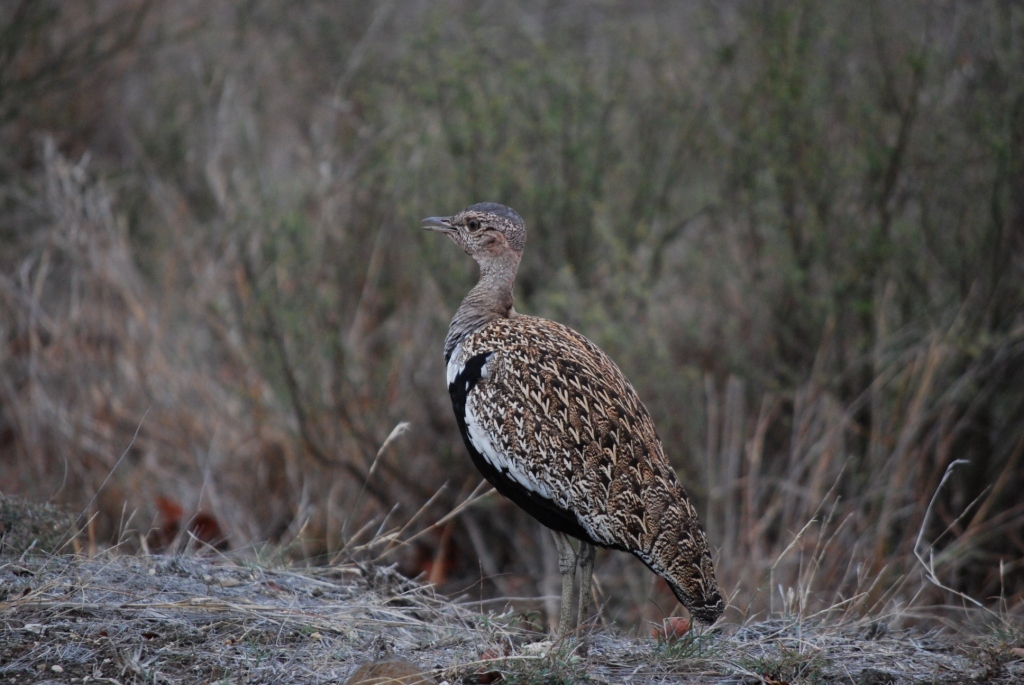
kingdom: Animalia
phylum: Chordata
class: Aves
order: Otidiformes
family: Otididae
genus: Lophotis
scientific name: Lophotis ruficrista
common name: Red-crested korhaan
